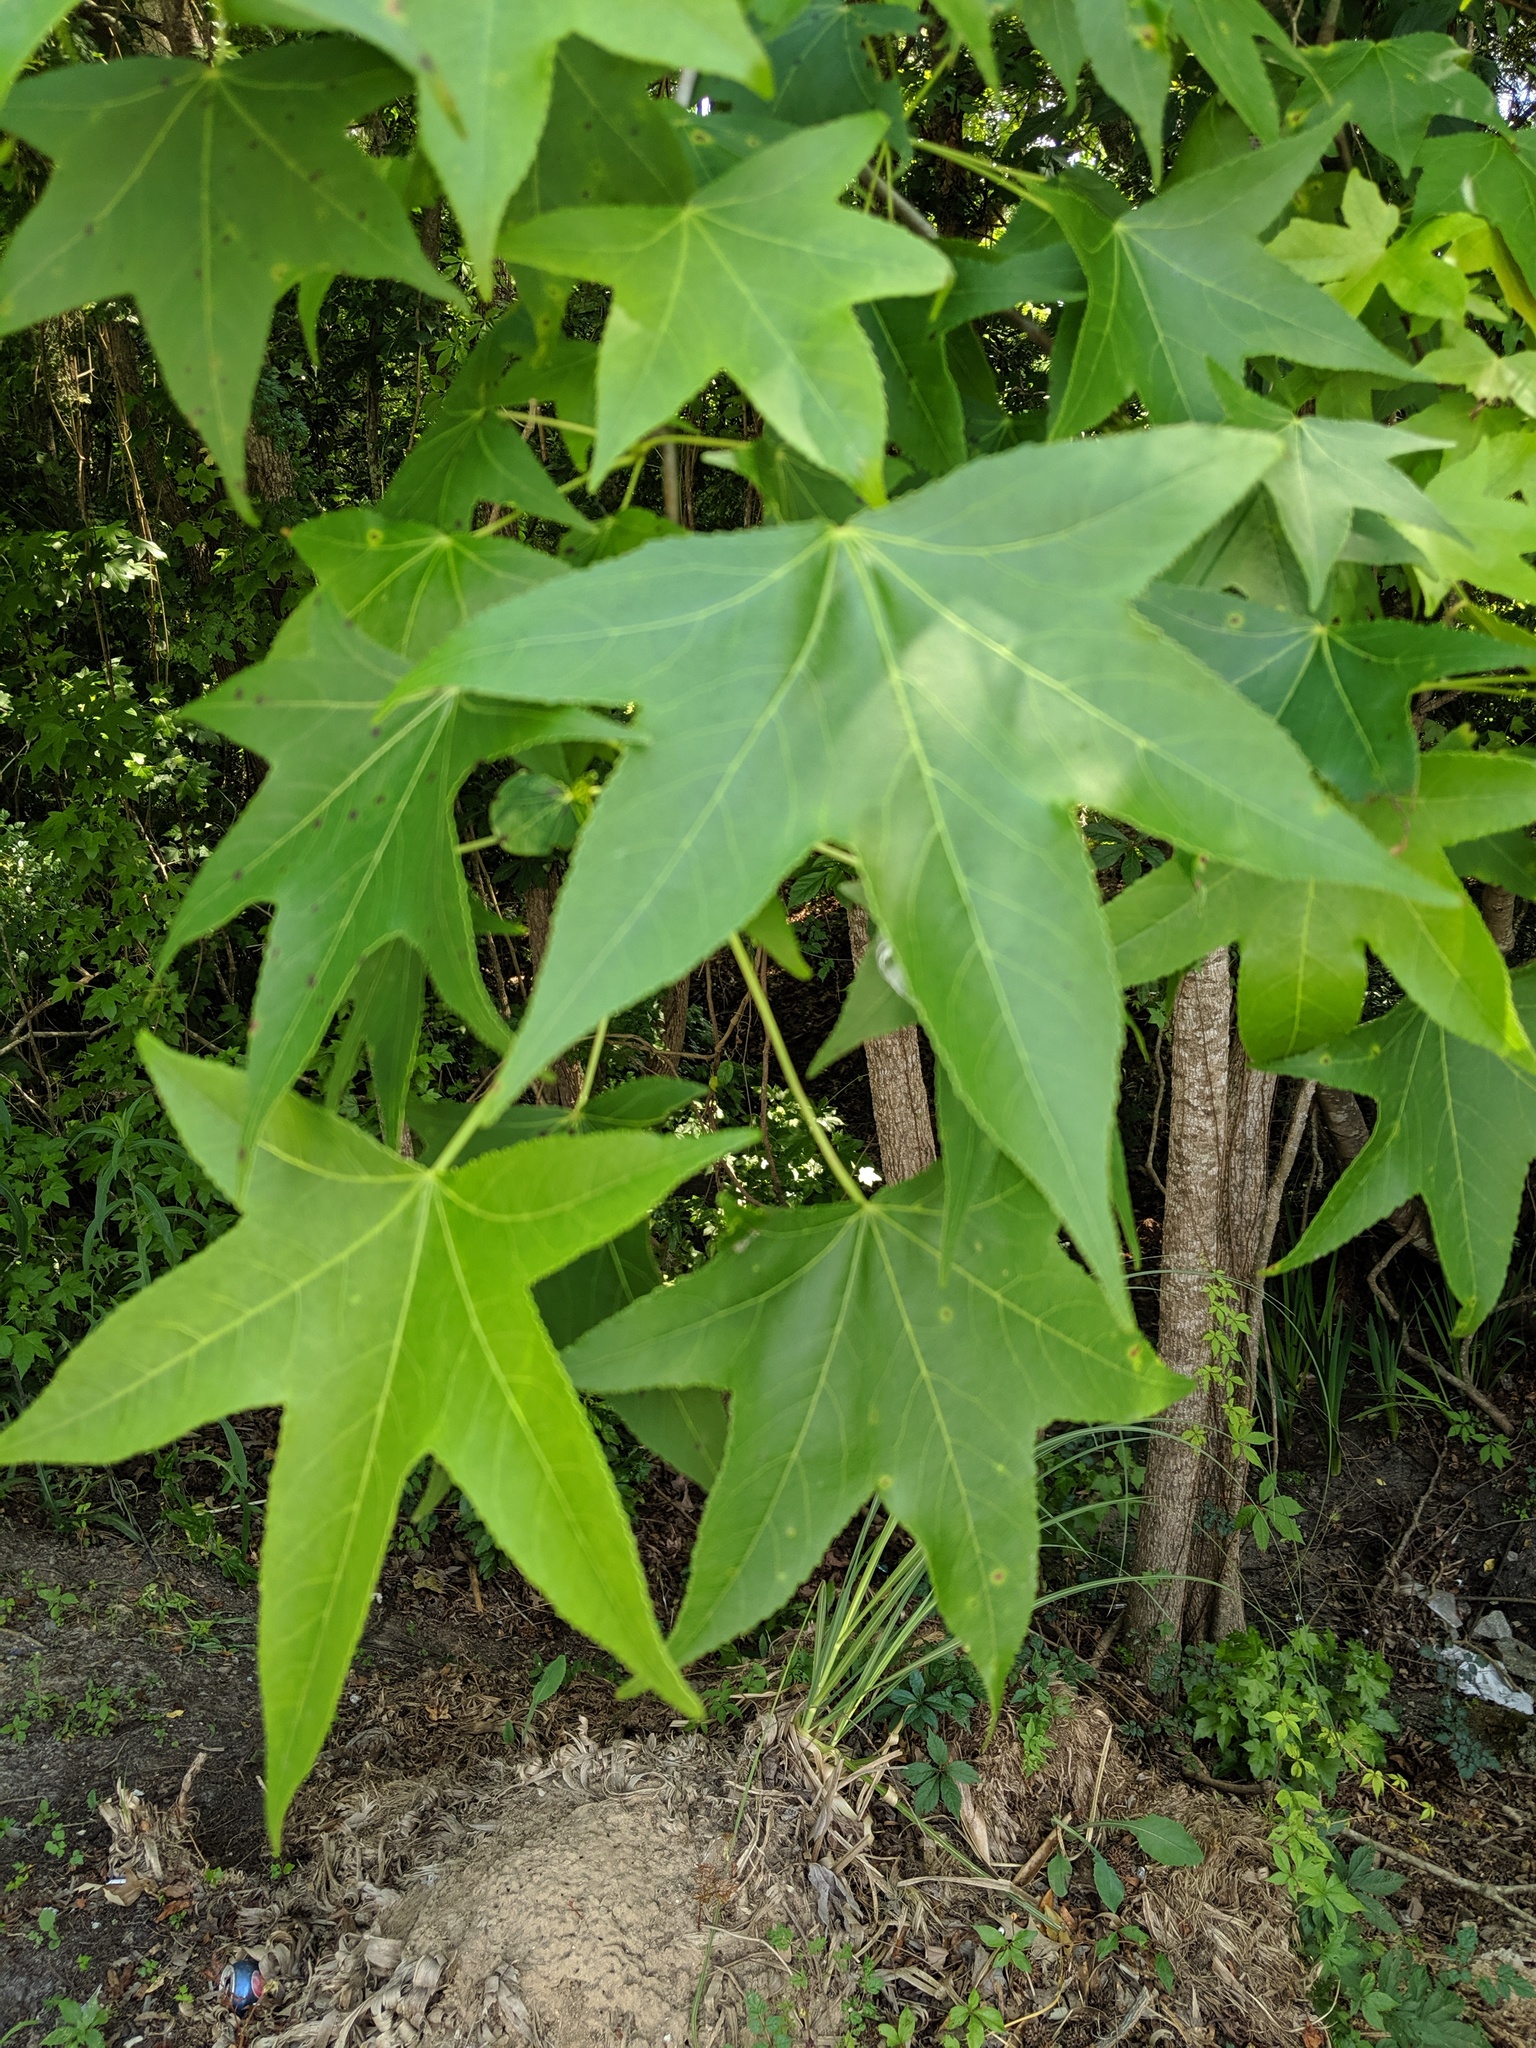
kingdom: Plantae
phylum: Tracheophyta
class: Magnoliopsida
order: Saxifragales
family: Altingiaceae
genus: Liquidambar
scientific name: Liquidambar styraciflua
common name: Sweet gum
